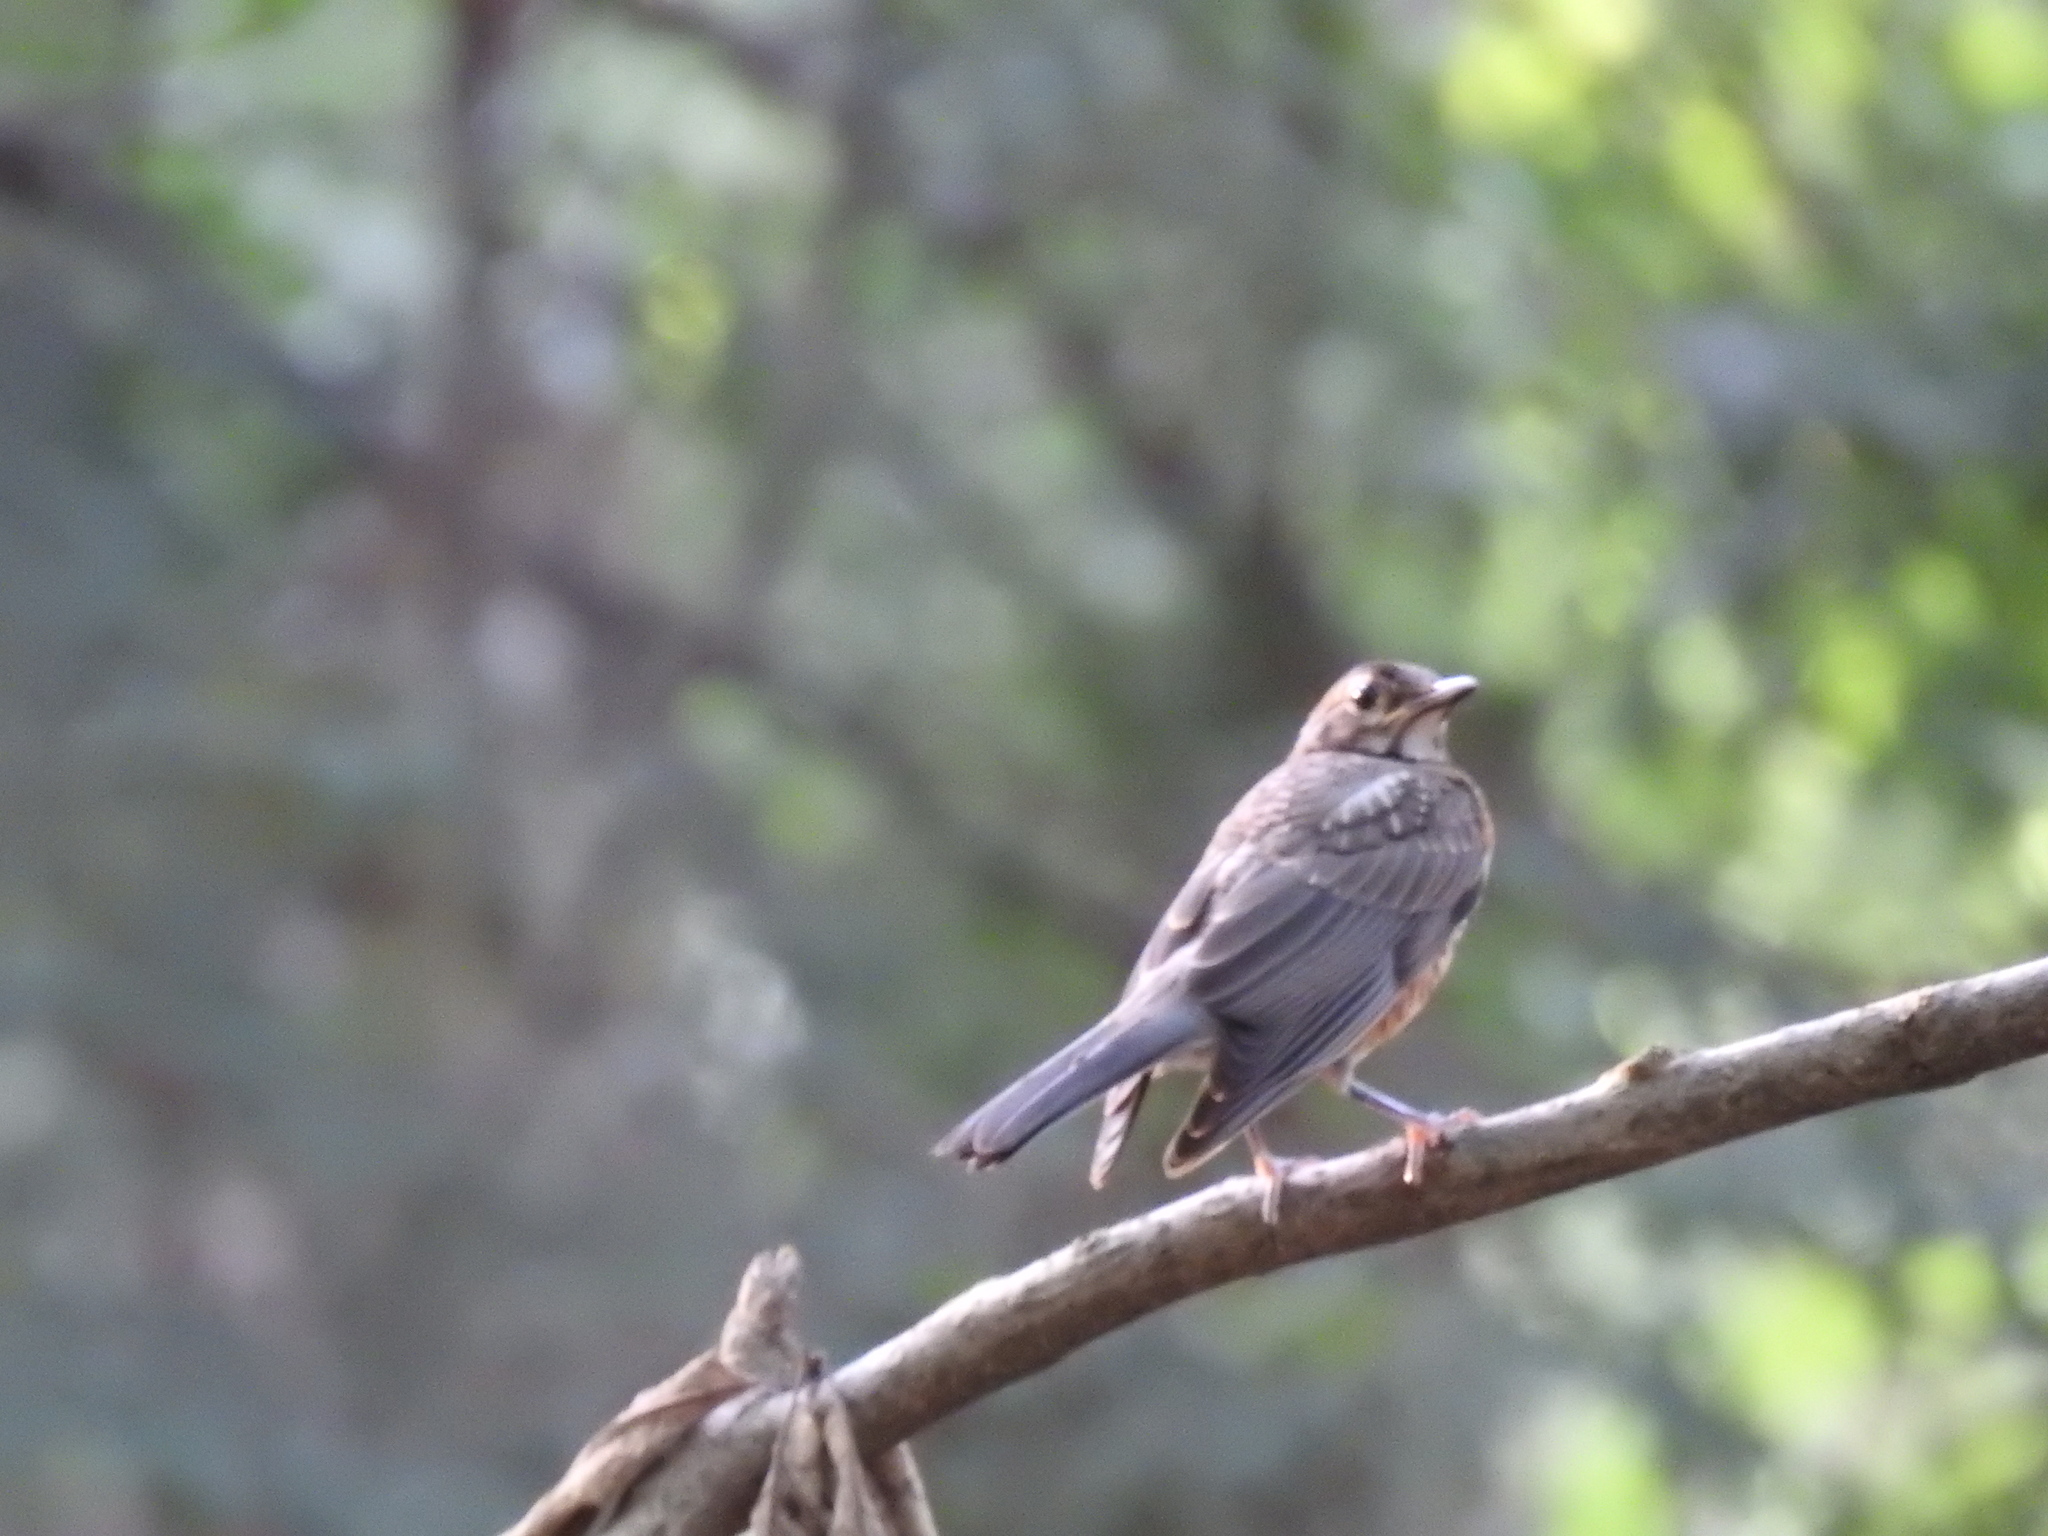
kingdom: Animalia
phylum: Chordata
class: Aves
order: Passeriformes
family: Turdidae
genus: Turdus
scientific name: Turdus migratorius
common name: American robin
